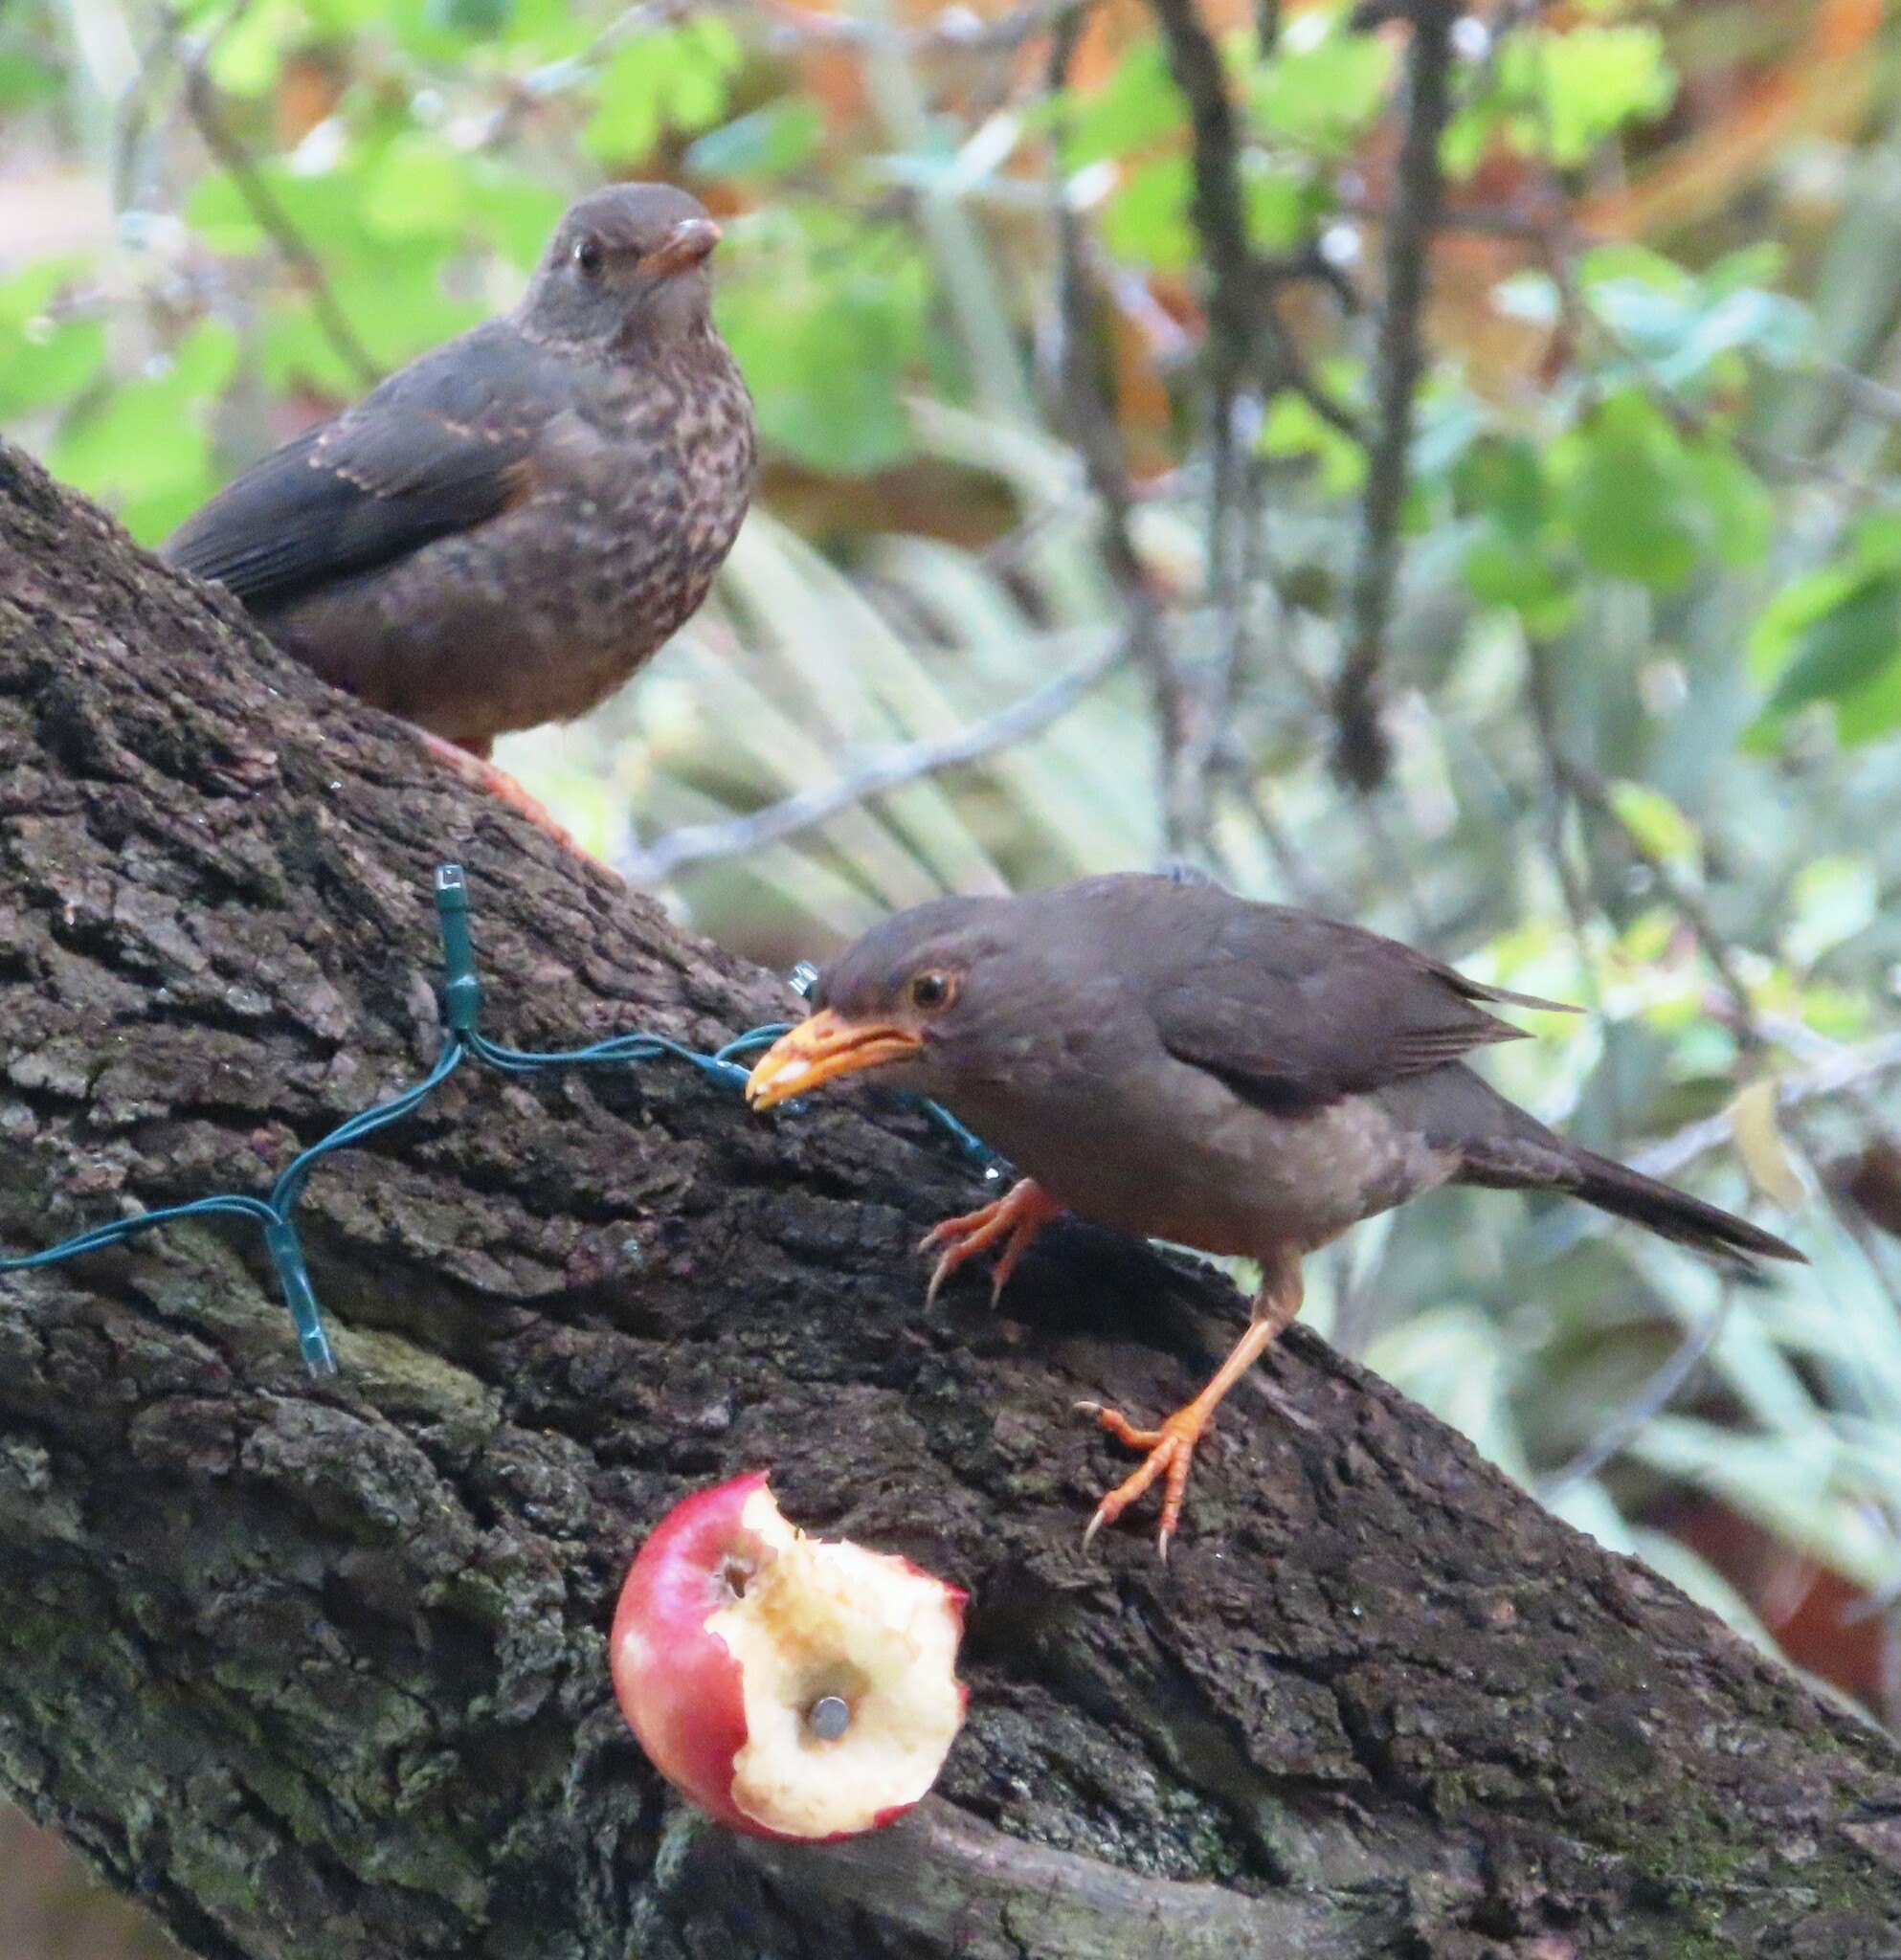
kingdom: Animalia
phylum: Chordata
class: Aves
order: Passeriformes
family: Turdidae
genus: Turdus
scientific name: Turdus smithi
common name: Karoo thrush
